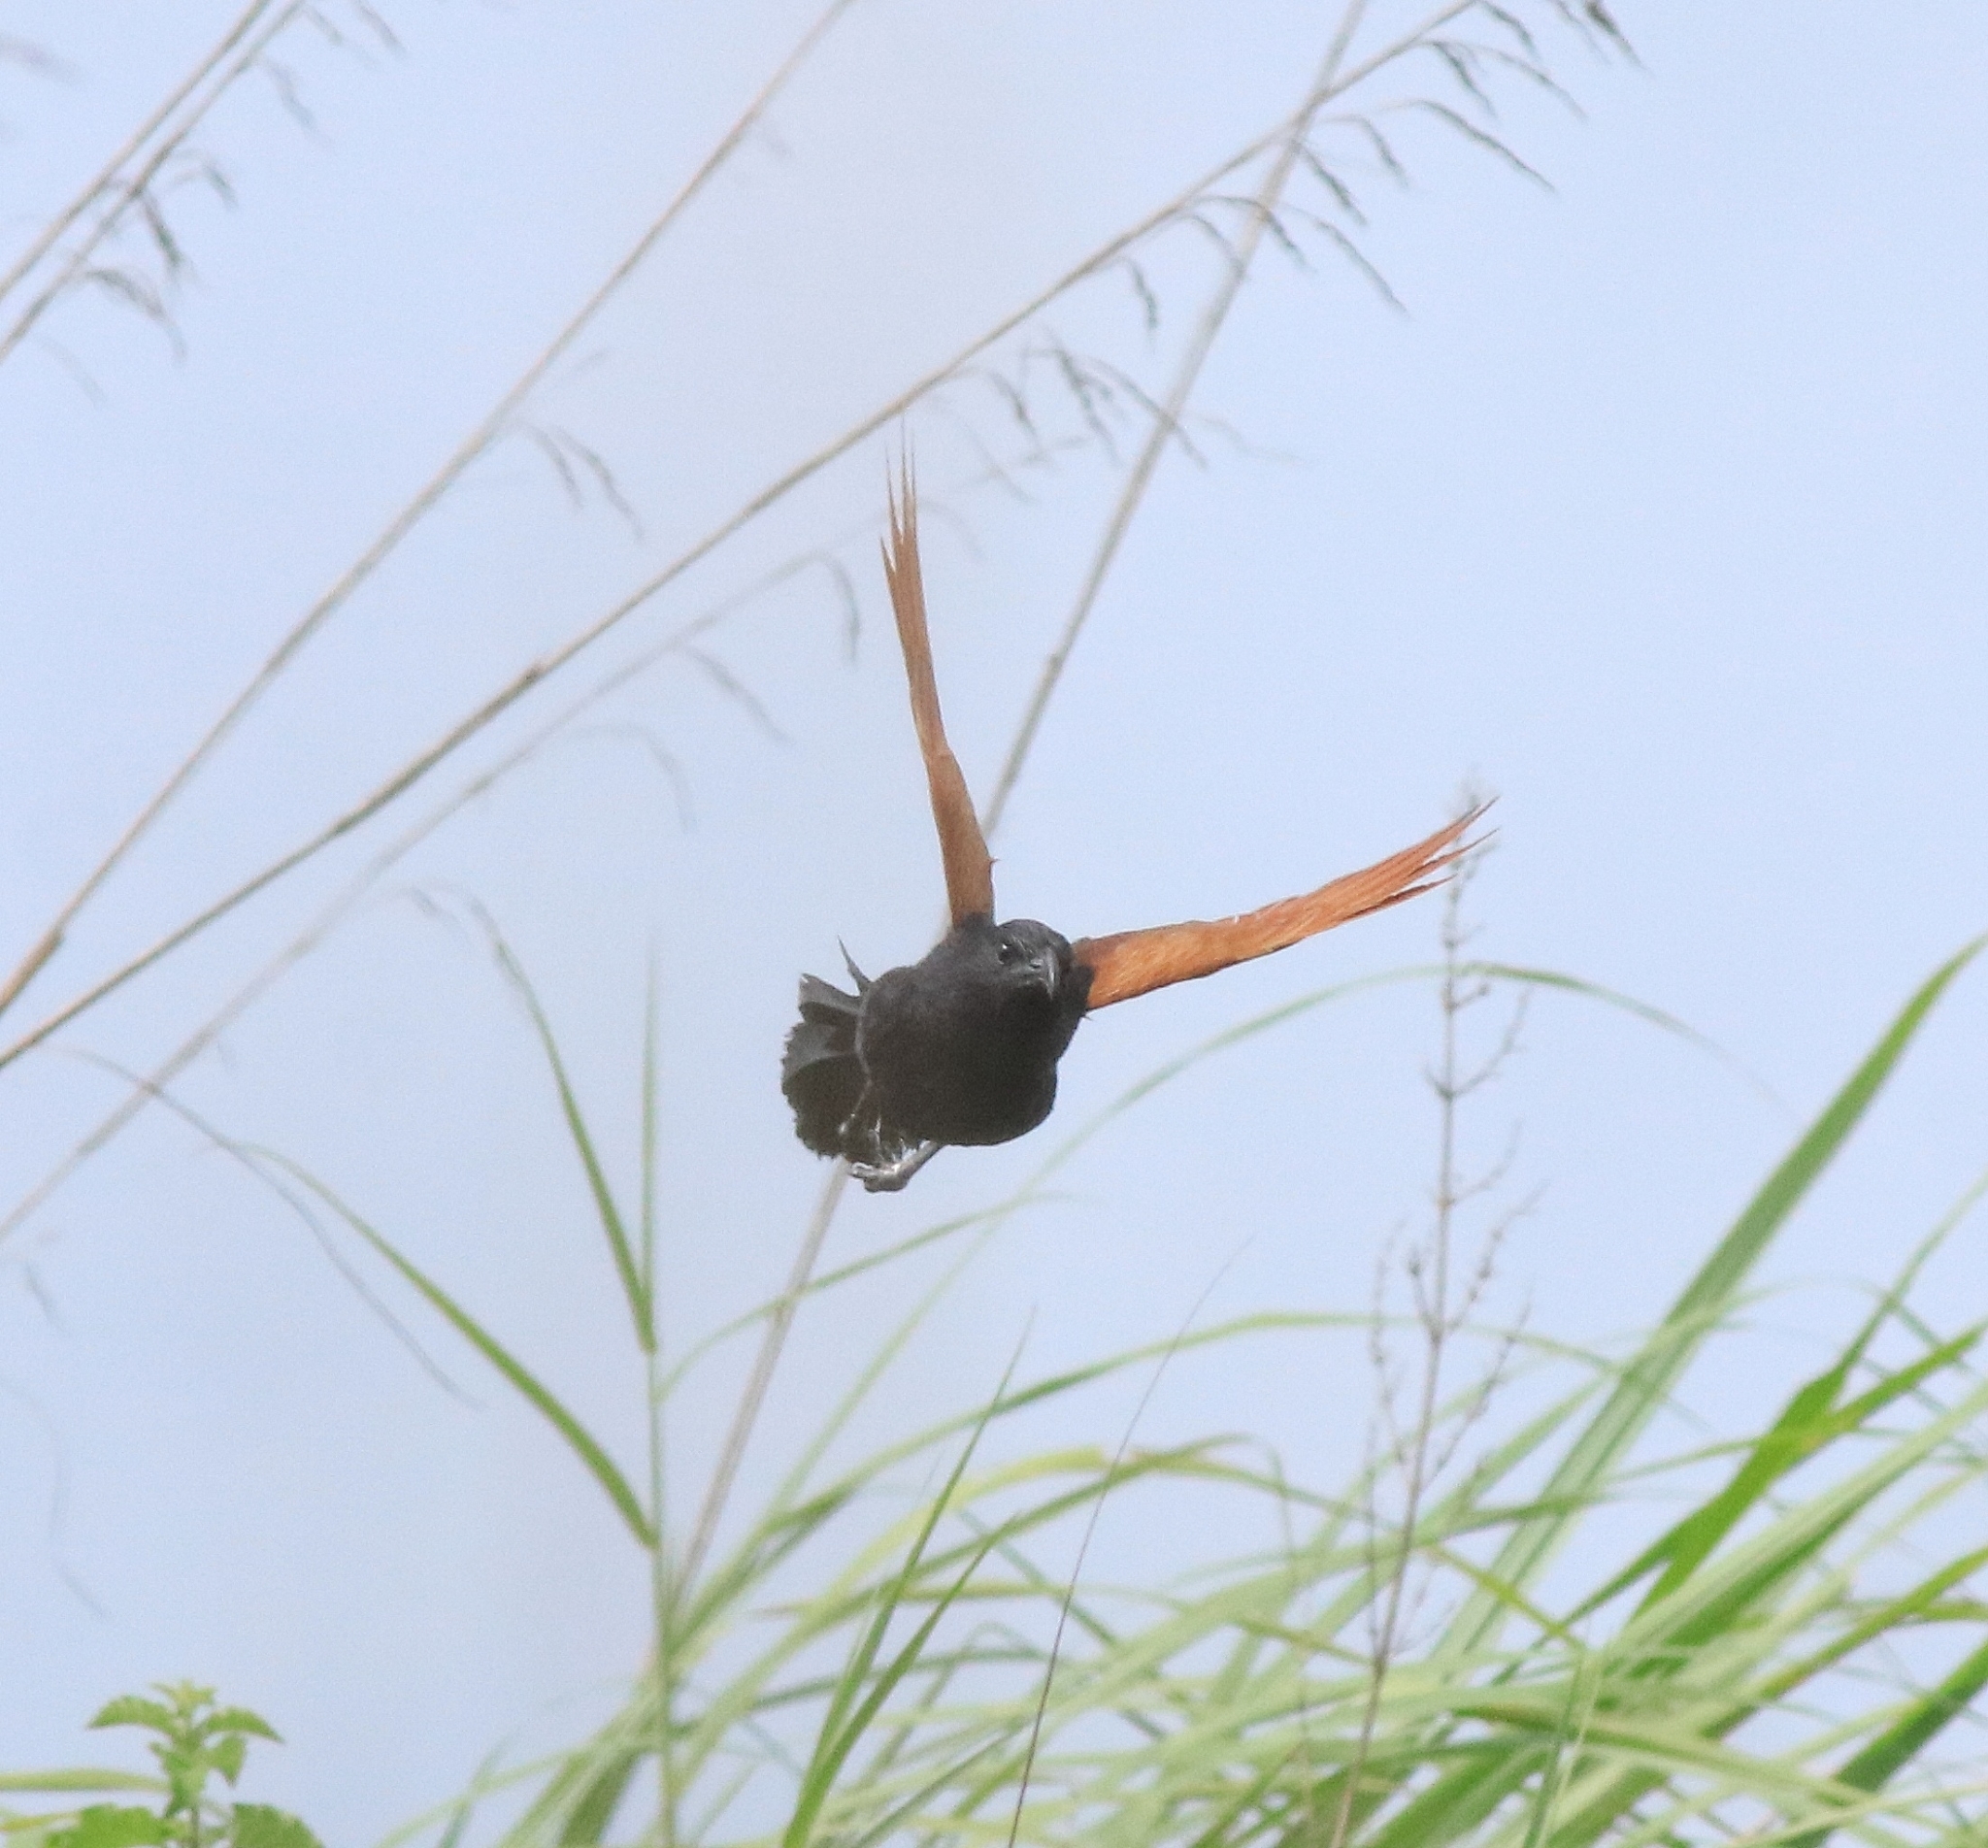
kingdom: Animalia
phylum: Chordata
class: Aves
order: Cuculiformes
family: Cuculidae
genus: Centropus
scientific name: Centropus bengalensis
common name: Lesser coucal
